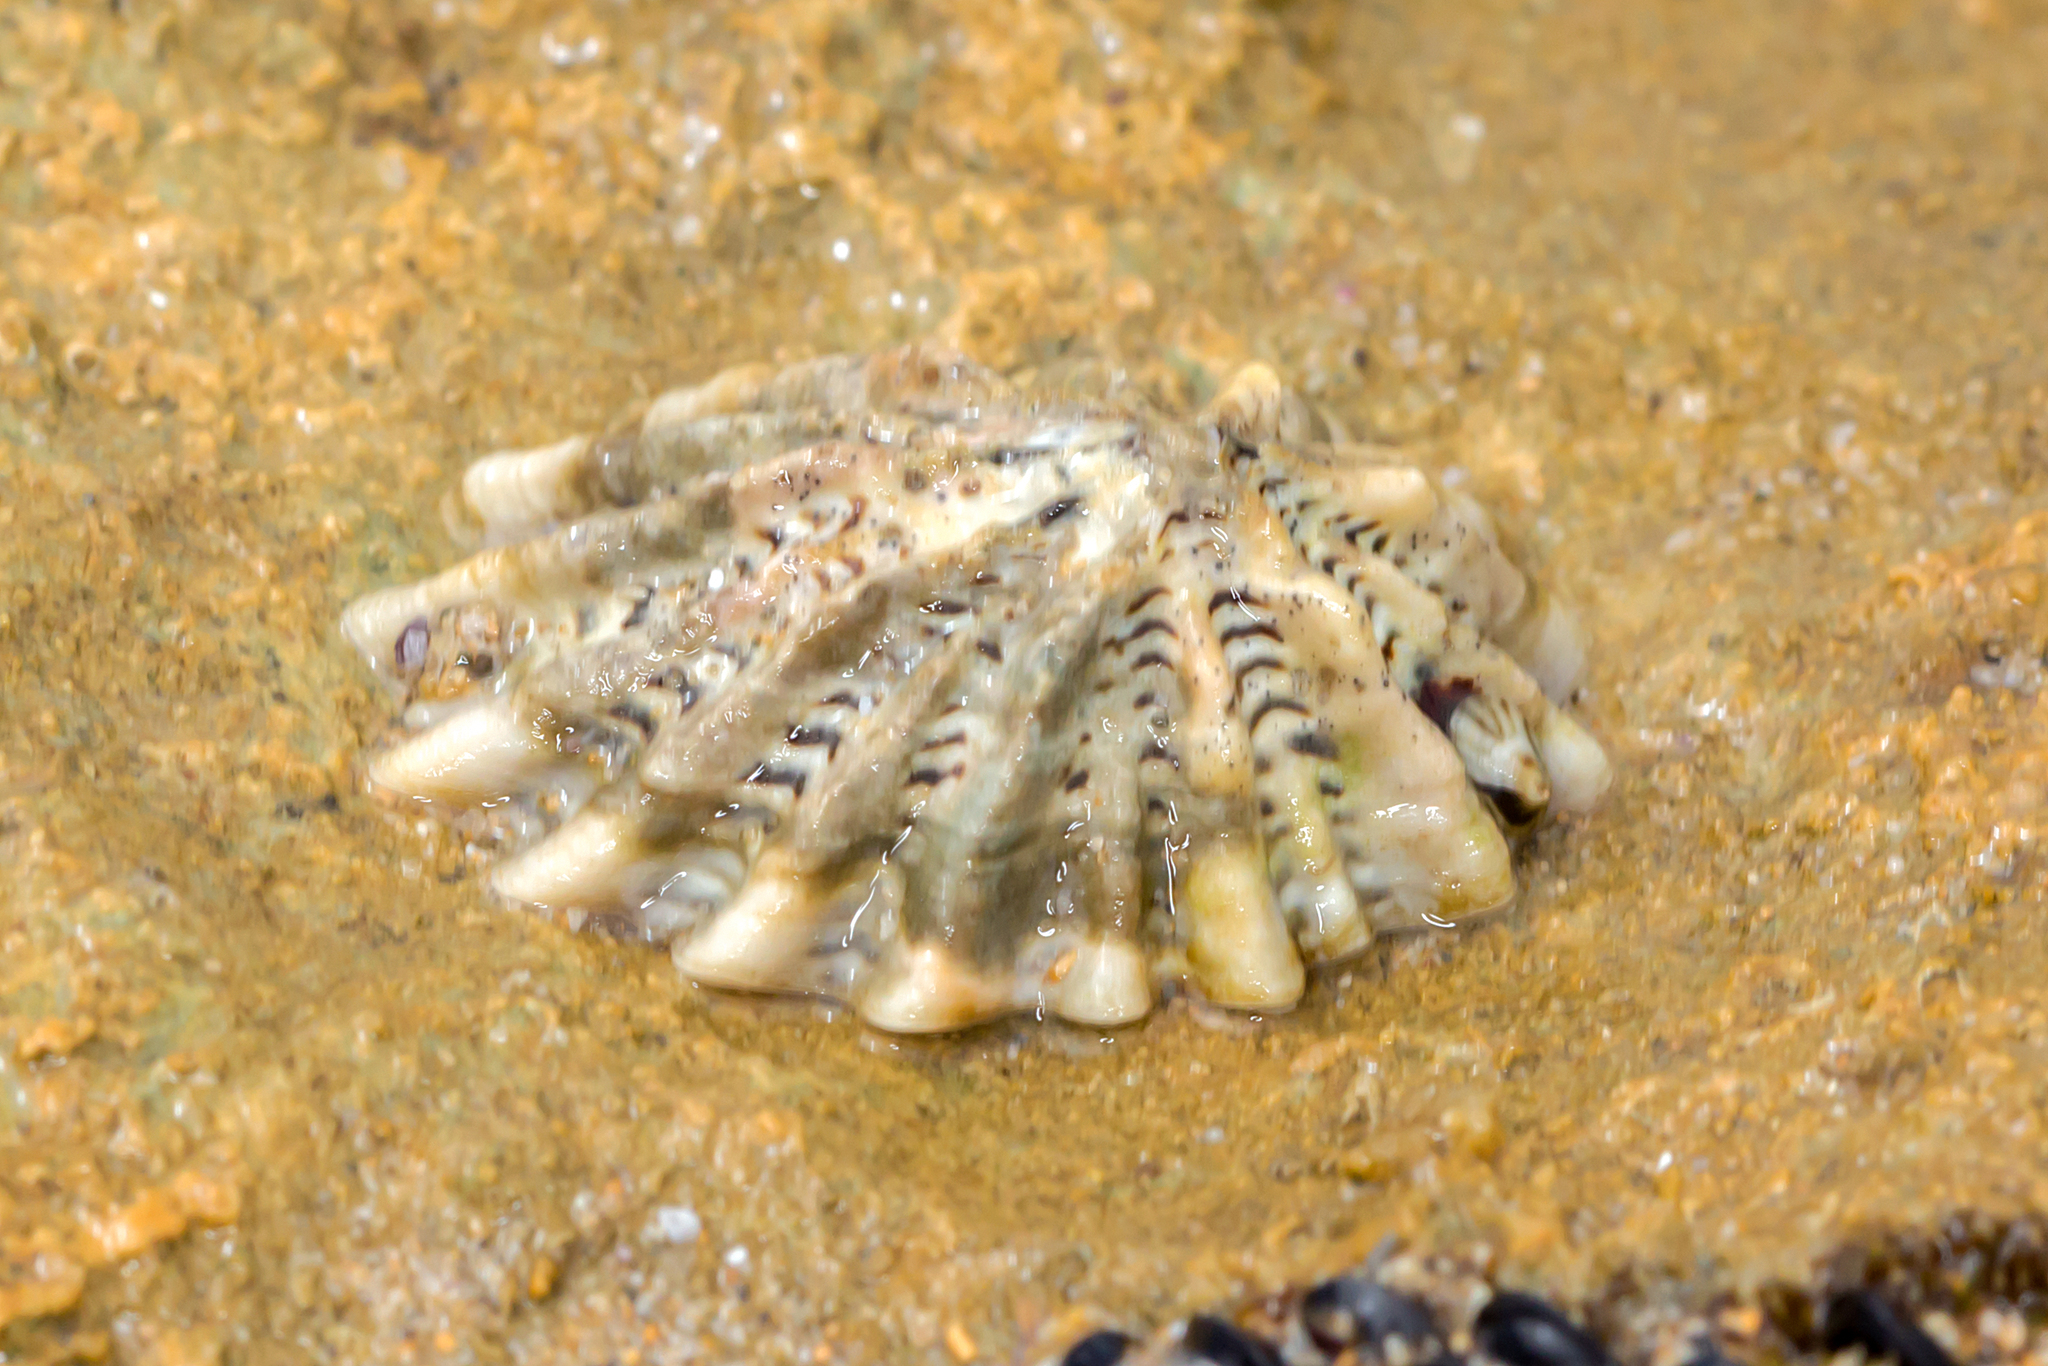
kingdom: Animalia
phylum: Mollusca
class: Gastropoda
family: Lottiidae
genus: Patelloida
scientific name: Patelloida alticostata
